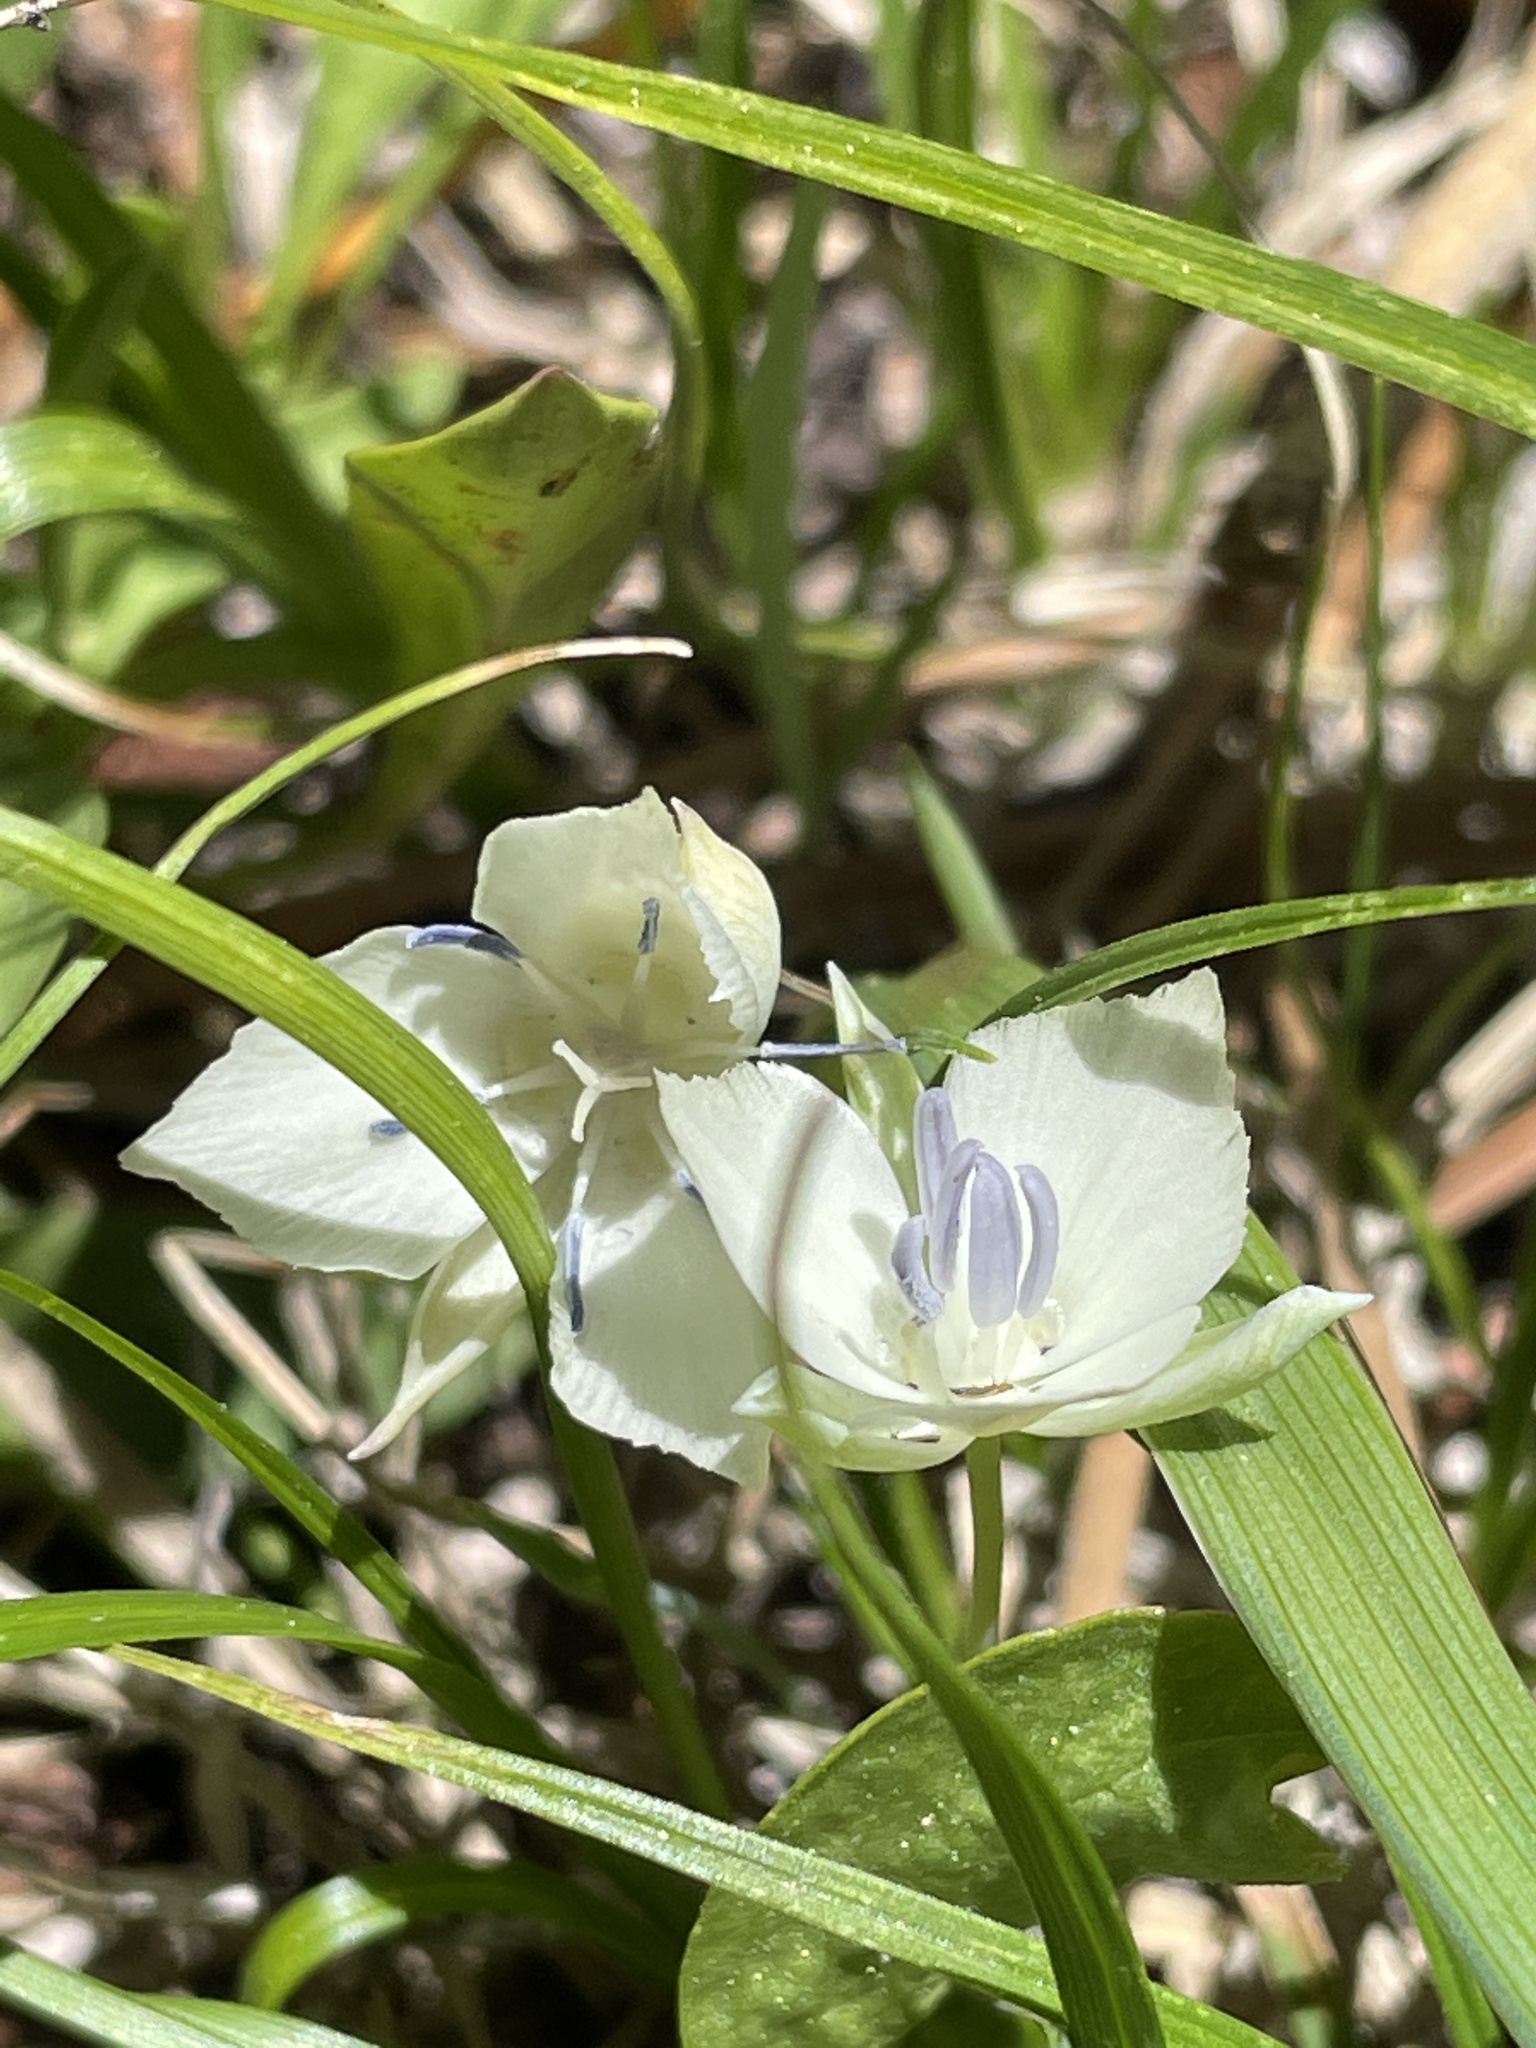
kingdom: Plantae
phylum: Tracheophyta
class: Liliopsida
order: Liliales
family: Liliaceae
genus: Calochortus
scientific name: Calochortus minimus
